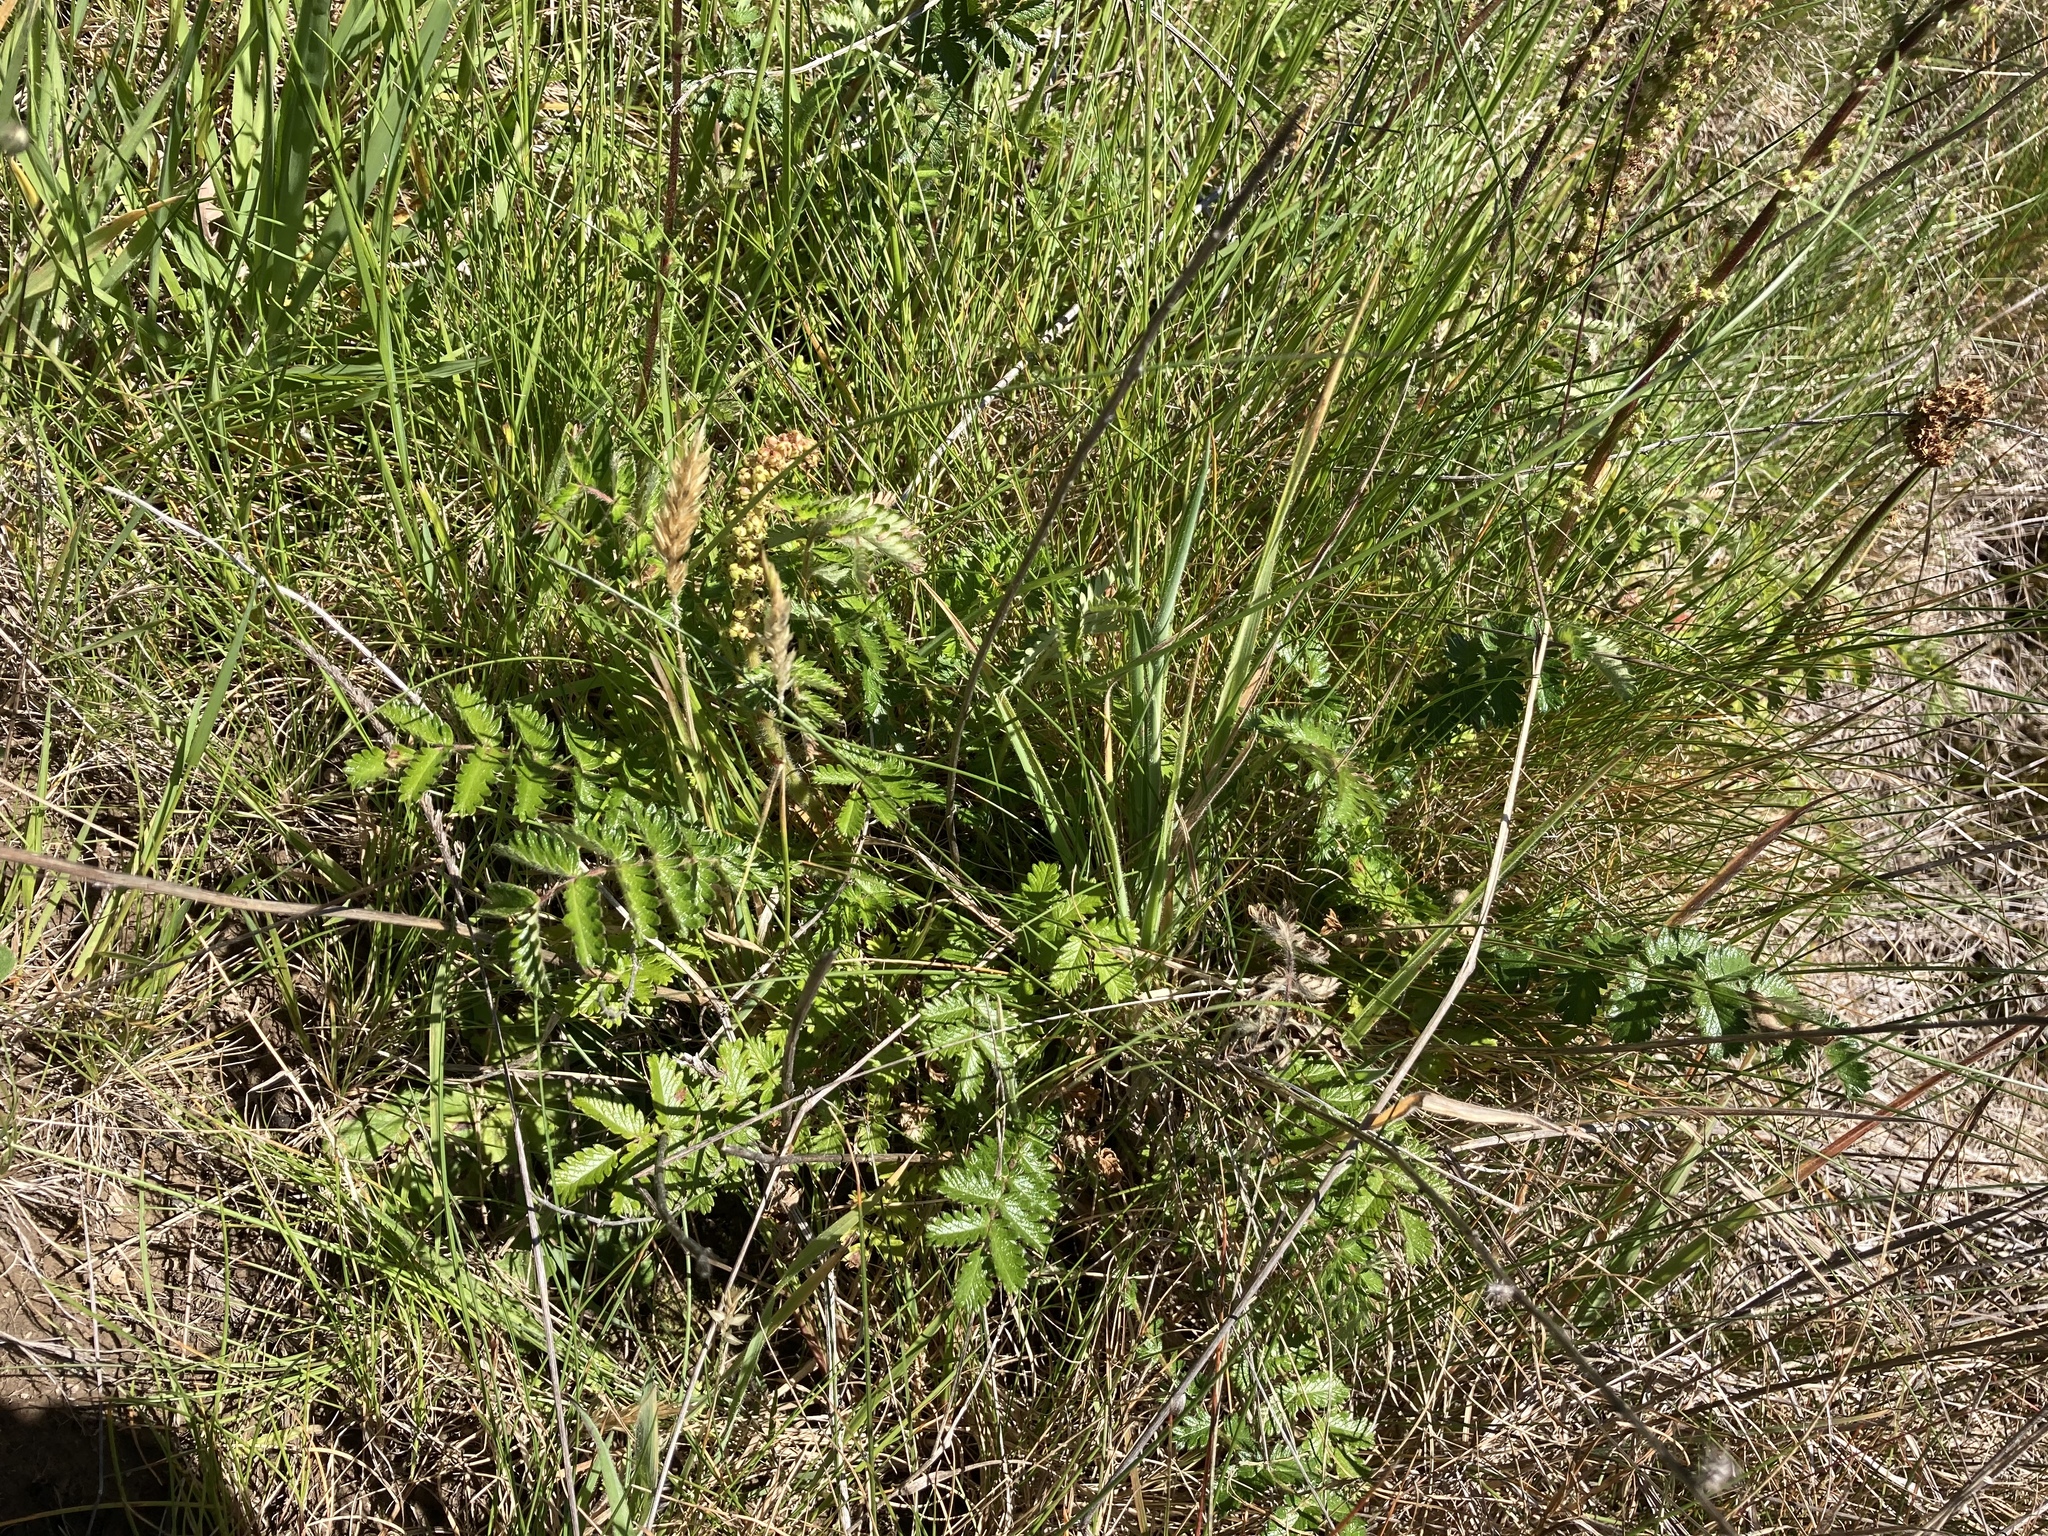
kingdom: Plantae
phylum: Tracheophyta
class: Magnoliopsida
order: Rosales
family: Rosaceae
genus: Acaena
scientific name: Acaena agnipila
